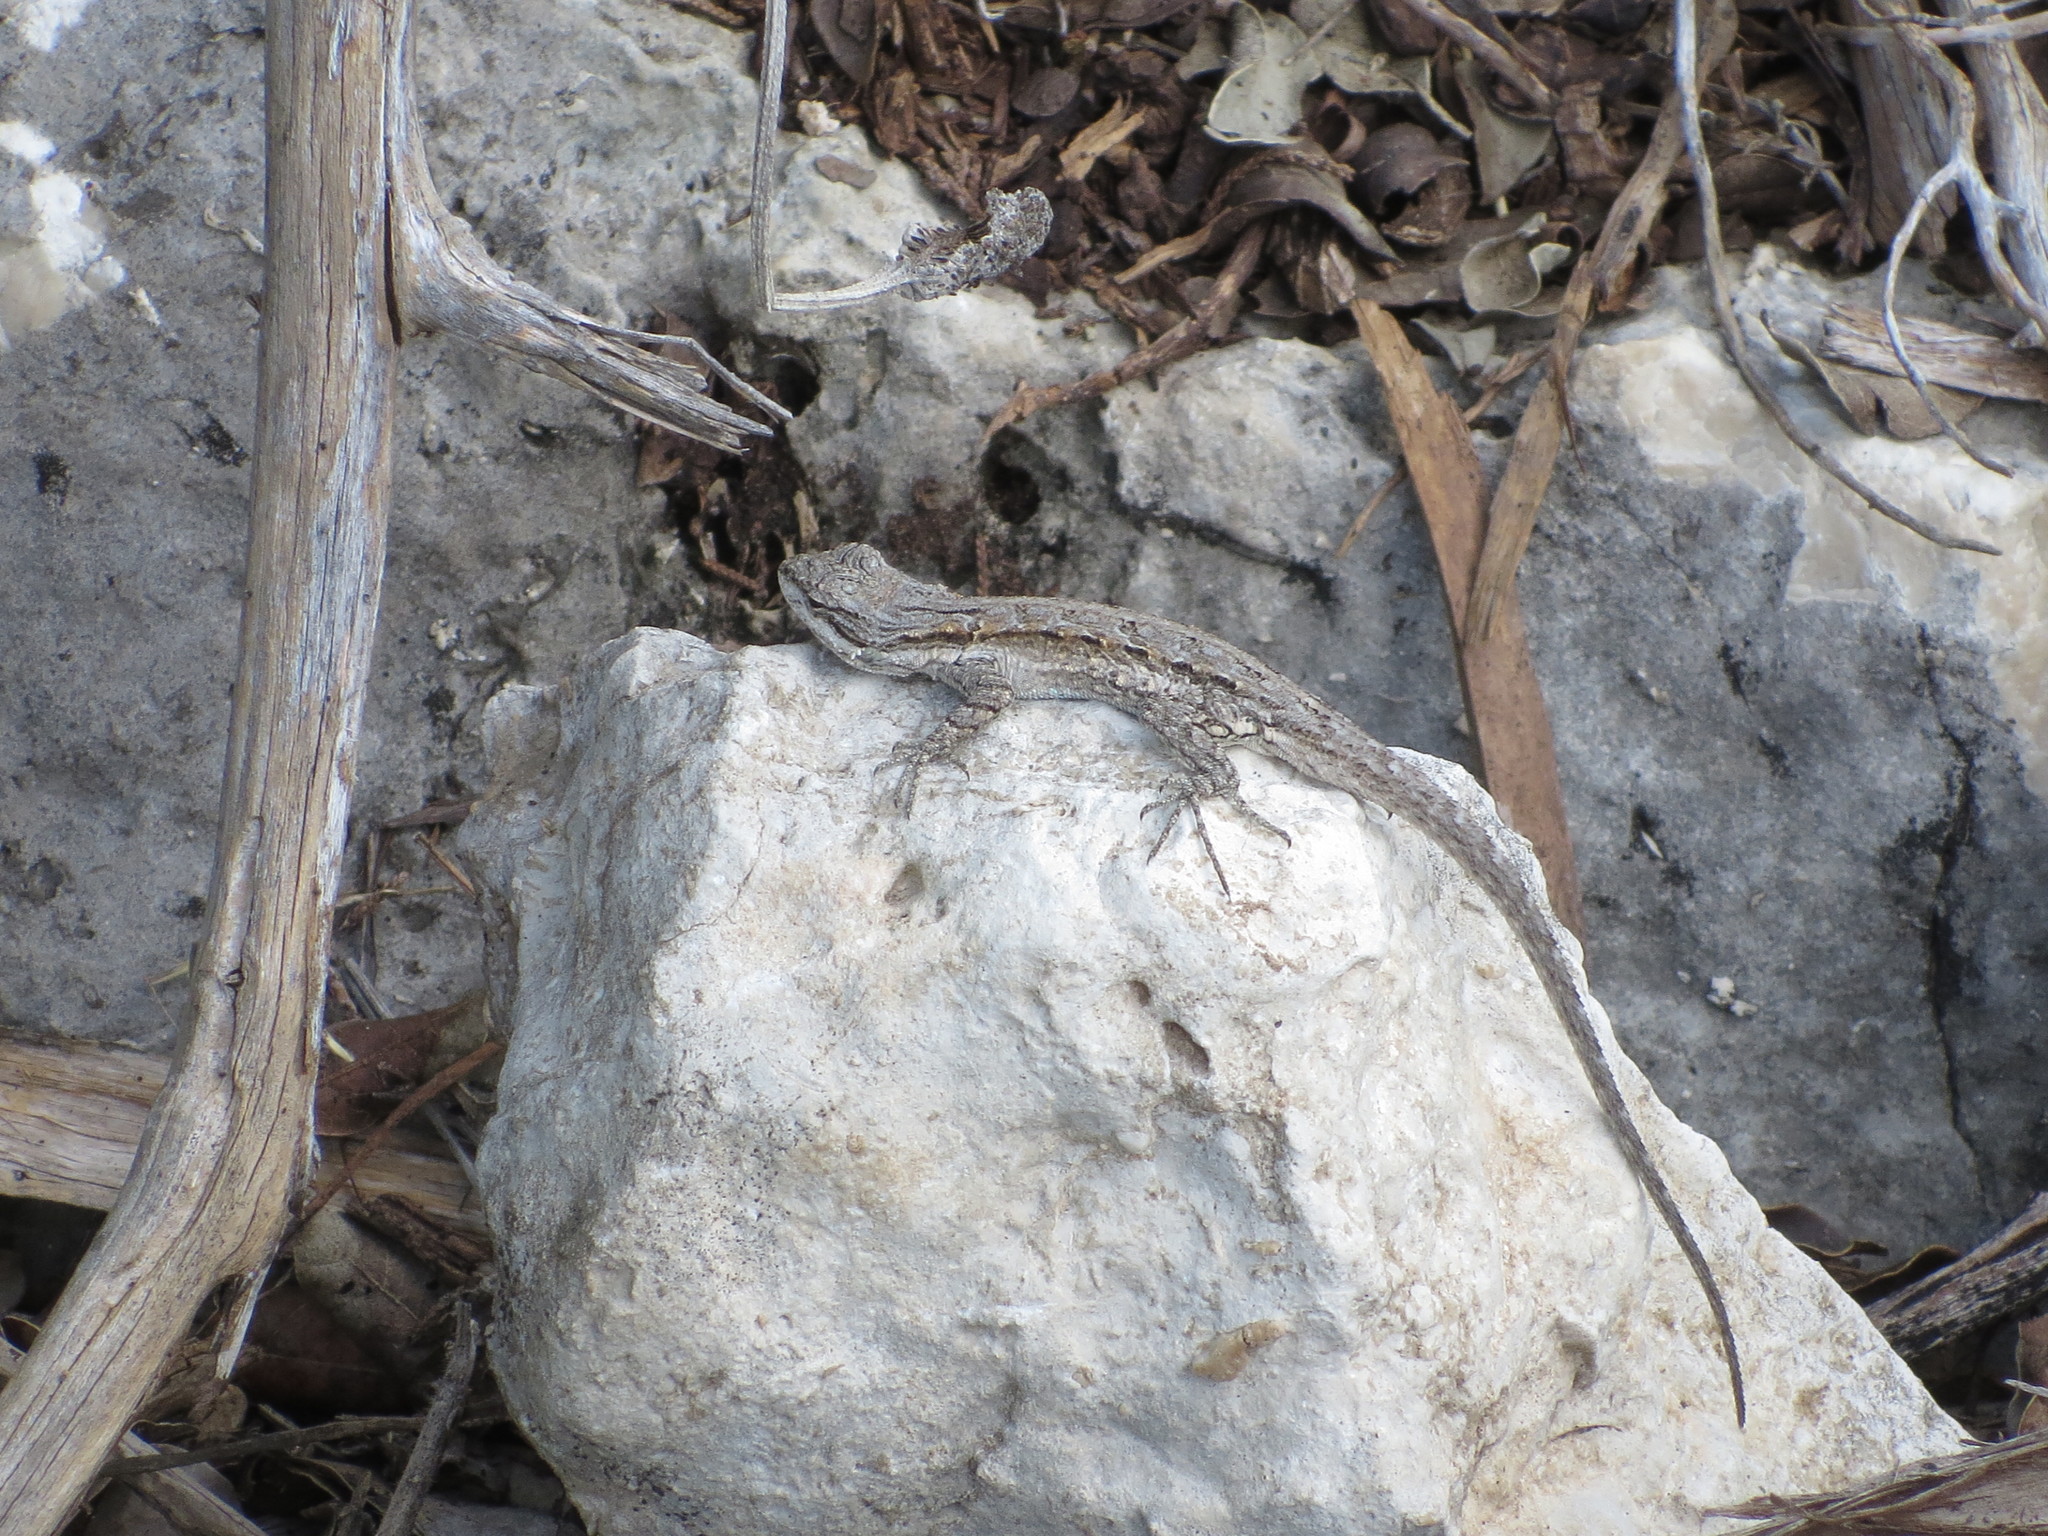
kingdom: Animalia
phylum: Chordata
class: Squamata
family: Phrynosomatidae
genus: Urosaurus
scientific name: Urosaurus ornatus
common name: Ornate tree lizard
